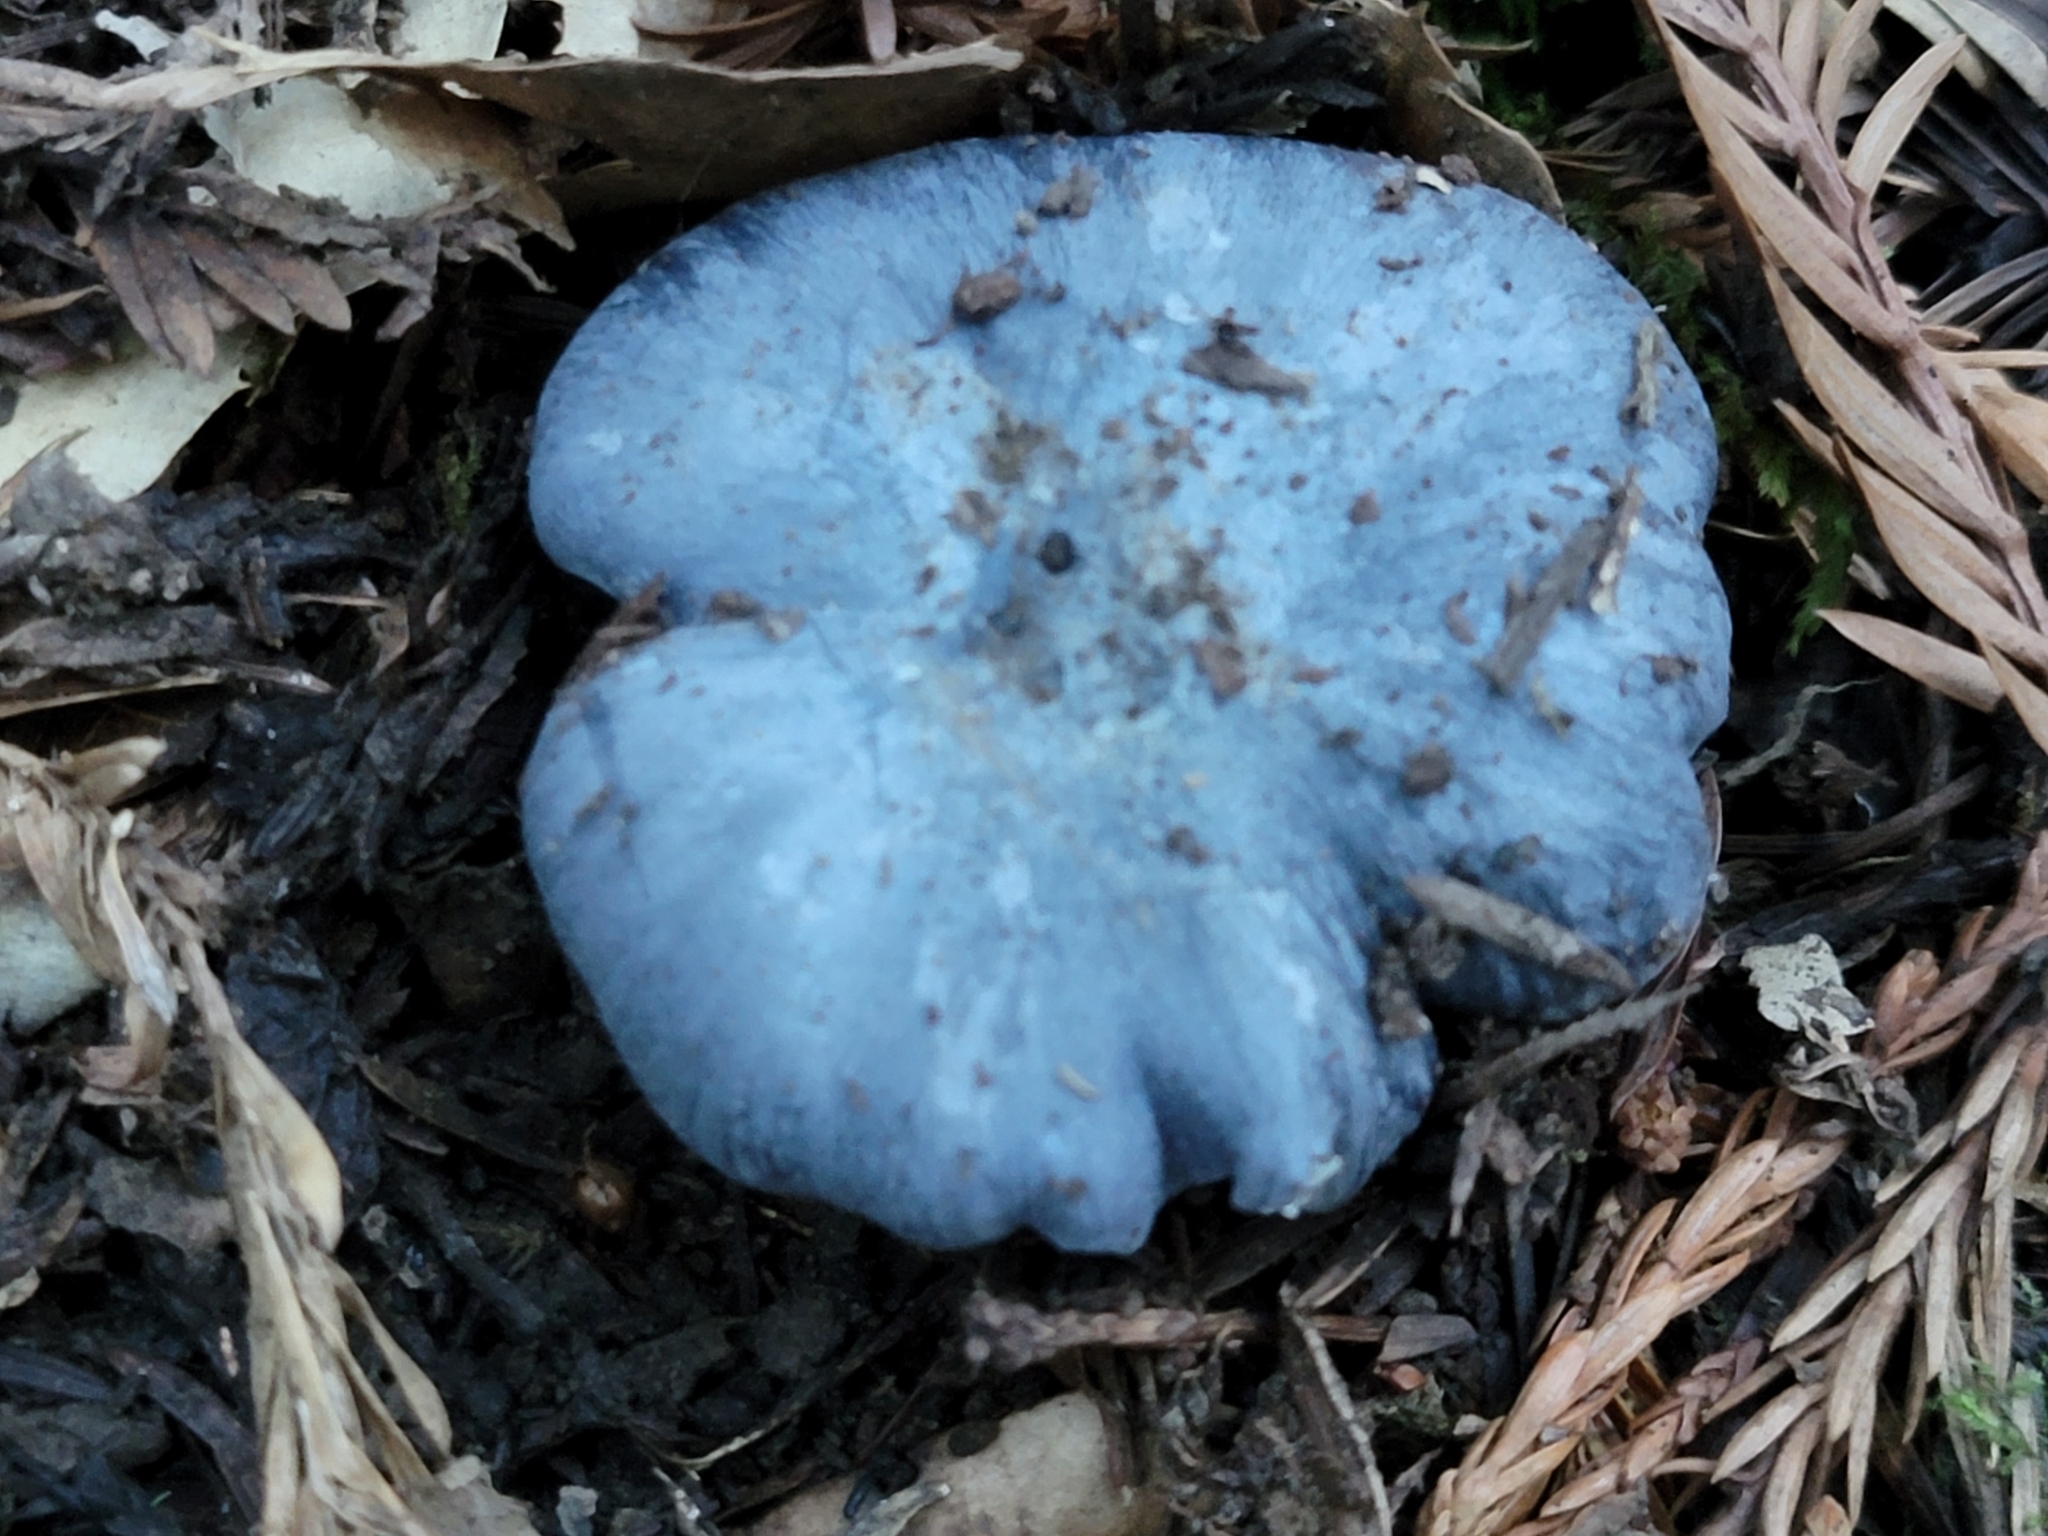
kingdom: Fungi
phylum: Basidiomycota
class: Agaricomycetes
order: Agaricales
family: Entolomataceae
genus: Entoloma
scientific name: Entoloma medianox
